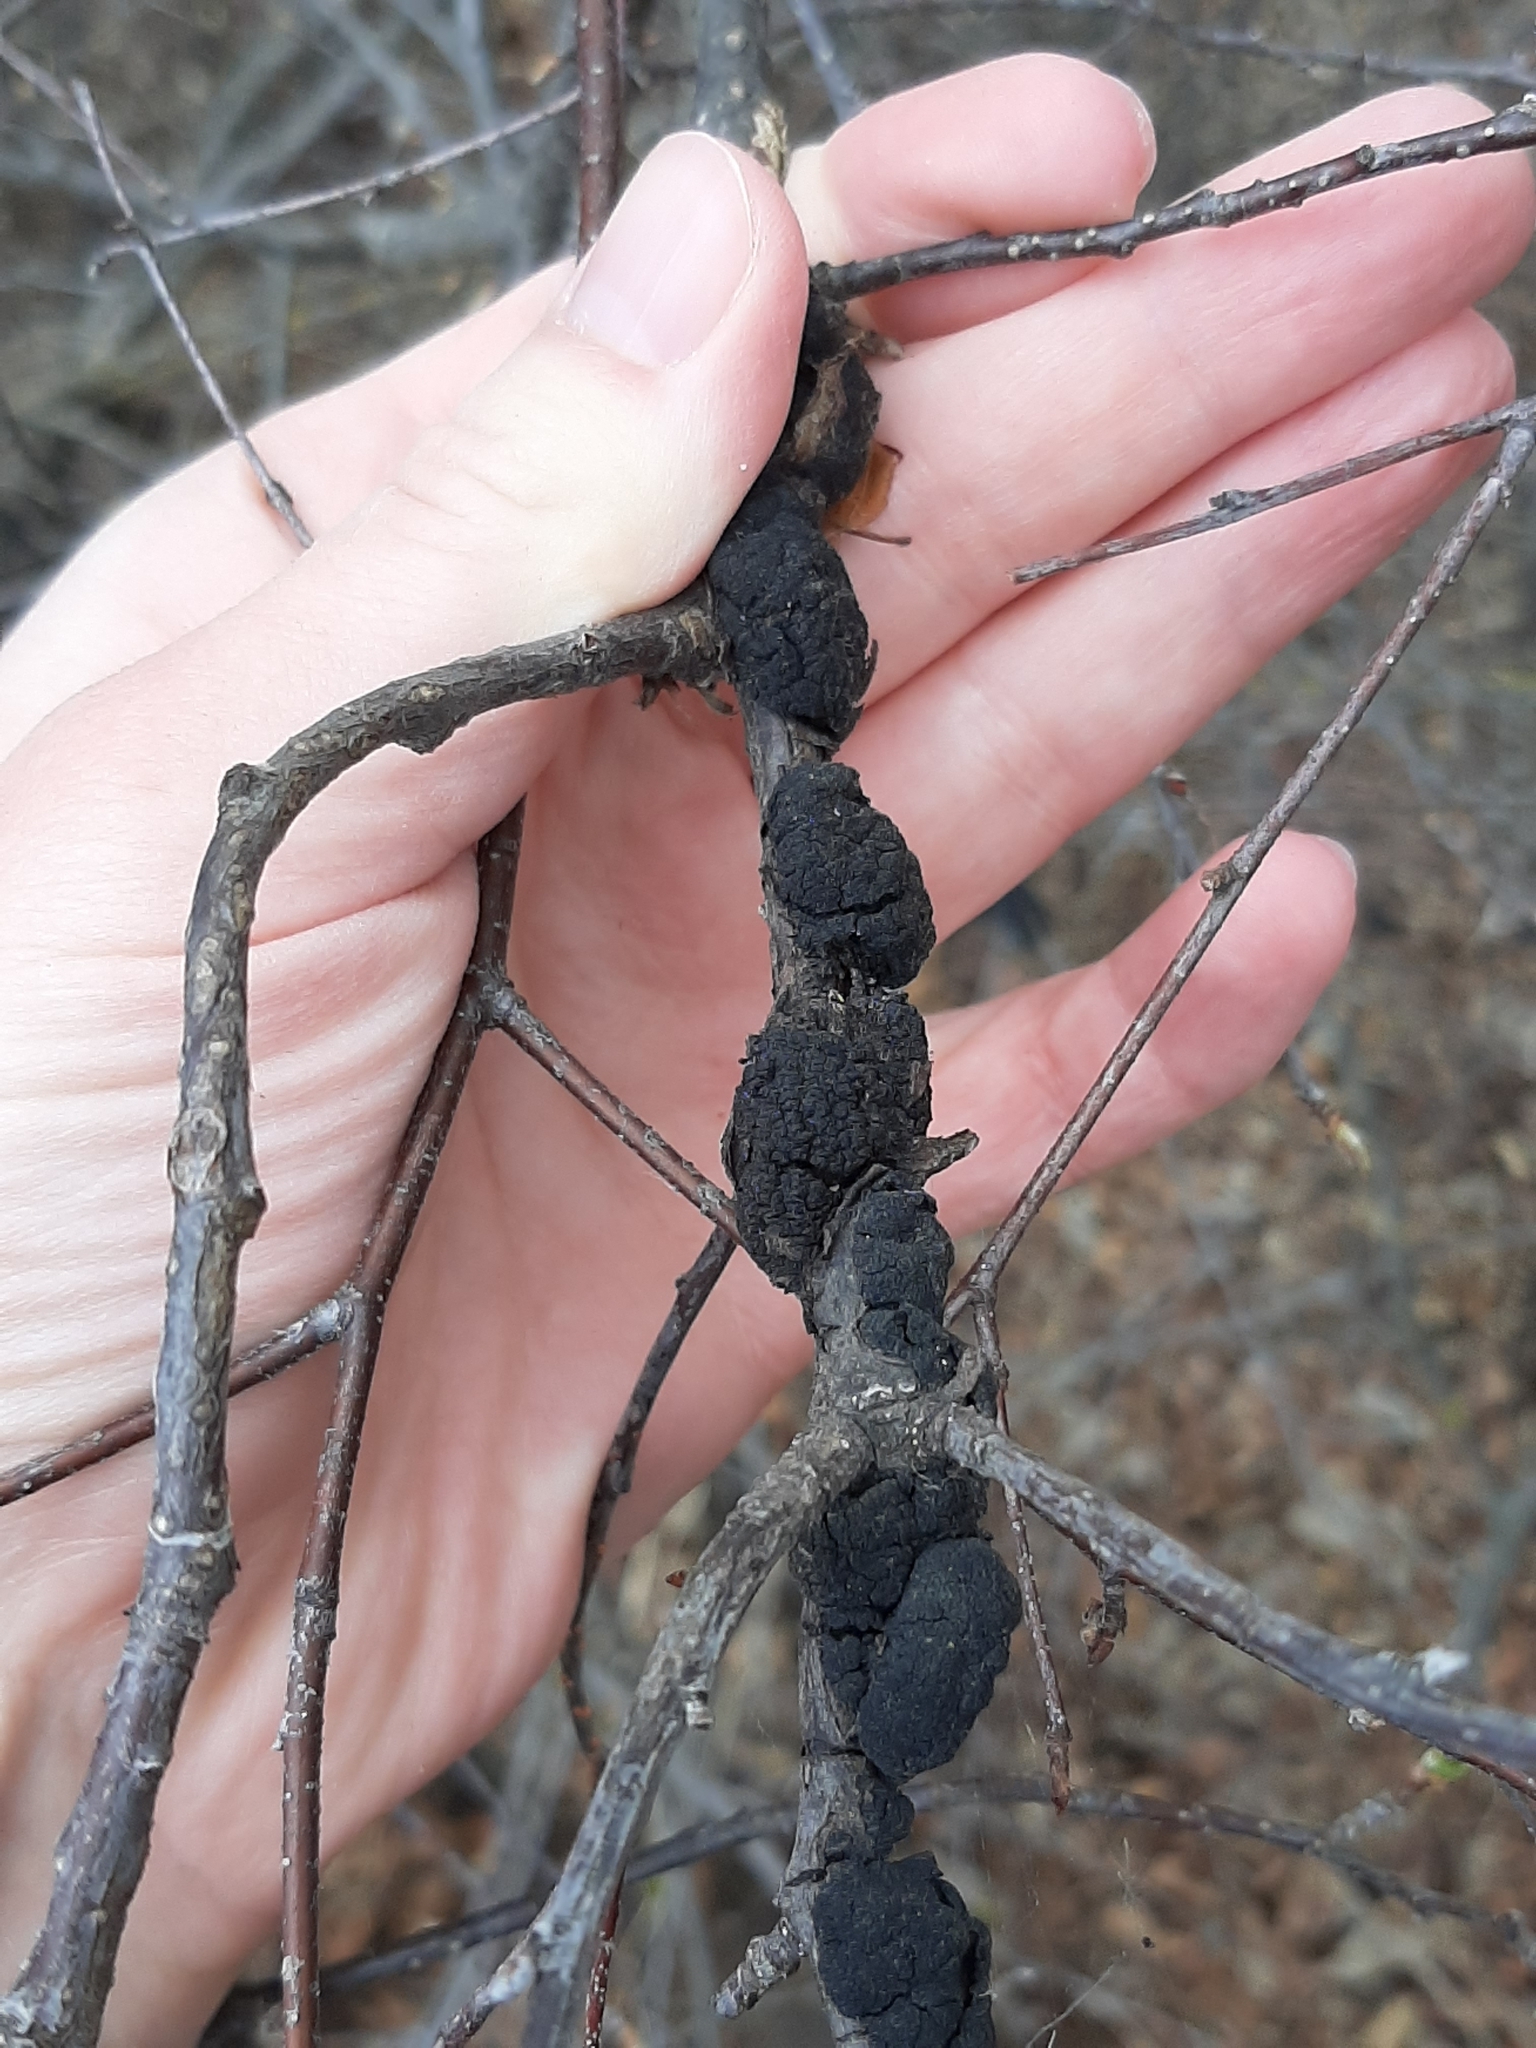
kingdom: Fungi
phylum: Ascomycota
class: Dothideomycetes
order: Venturiales
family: Venturiaceae
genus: Apiosporina
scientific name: Apiosporina morbosa
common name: Black knot
